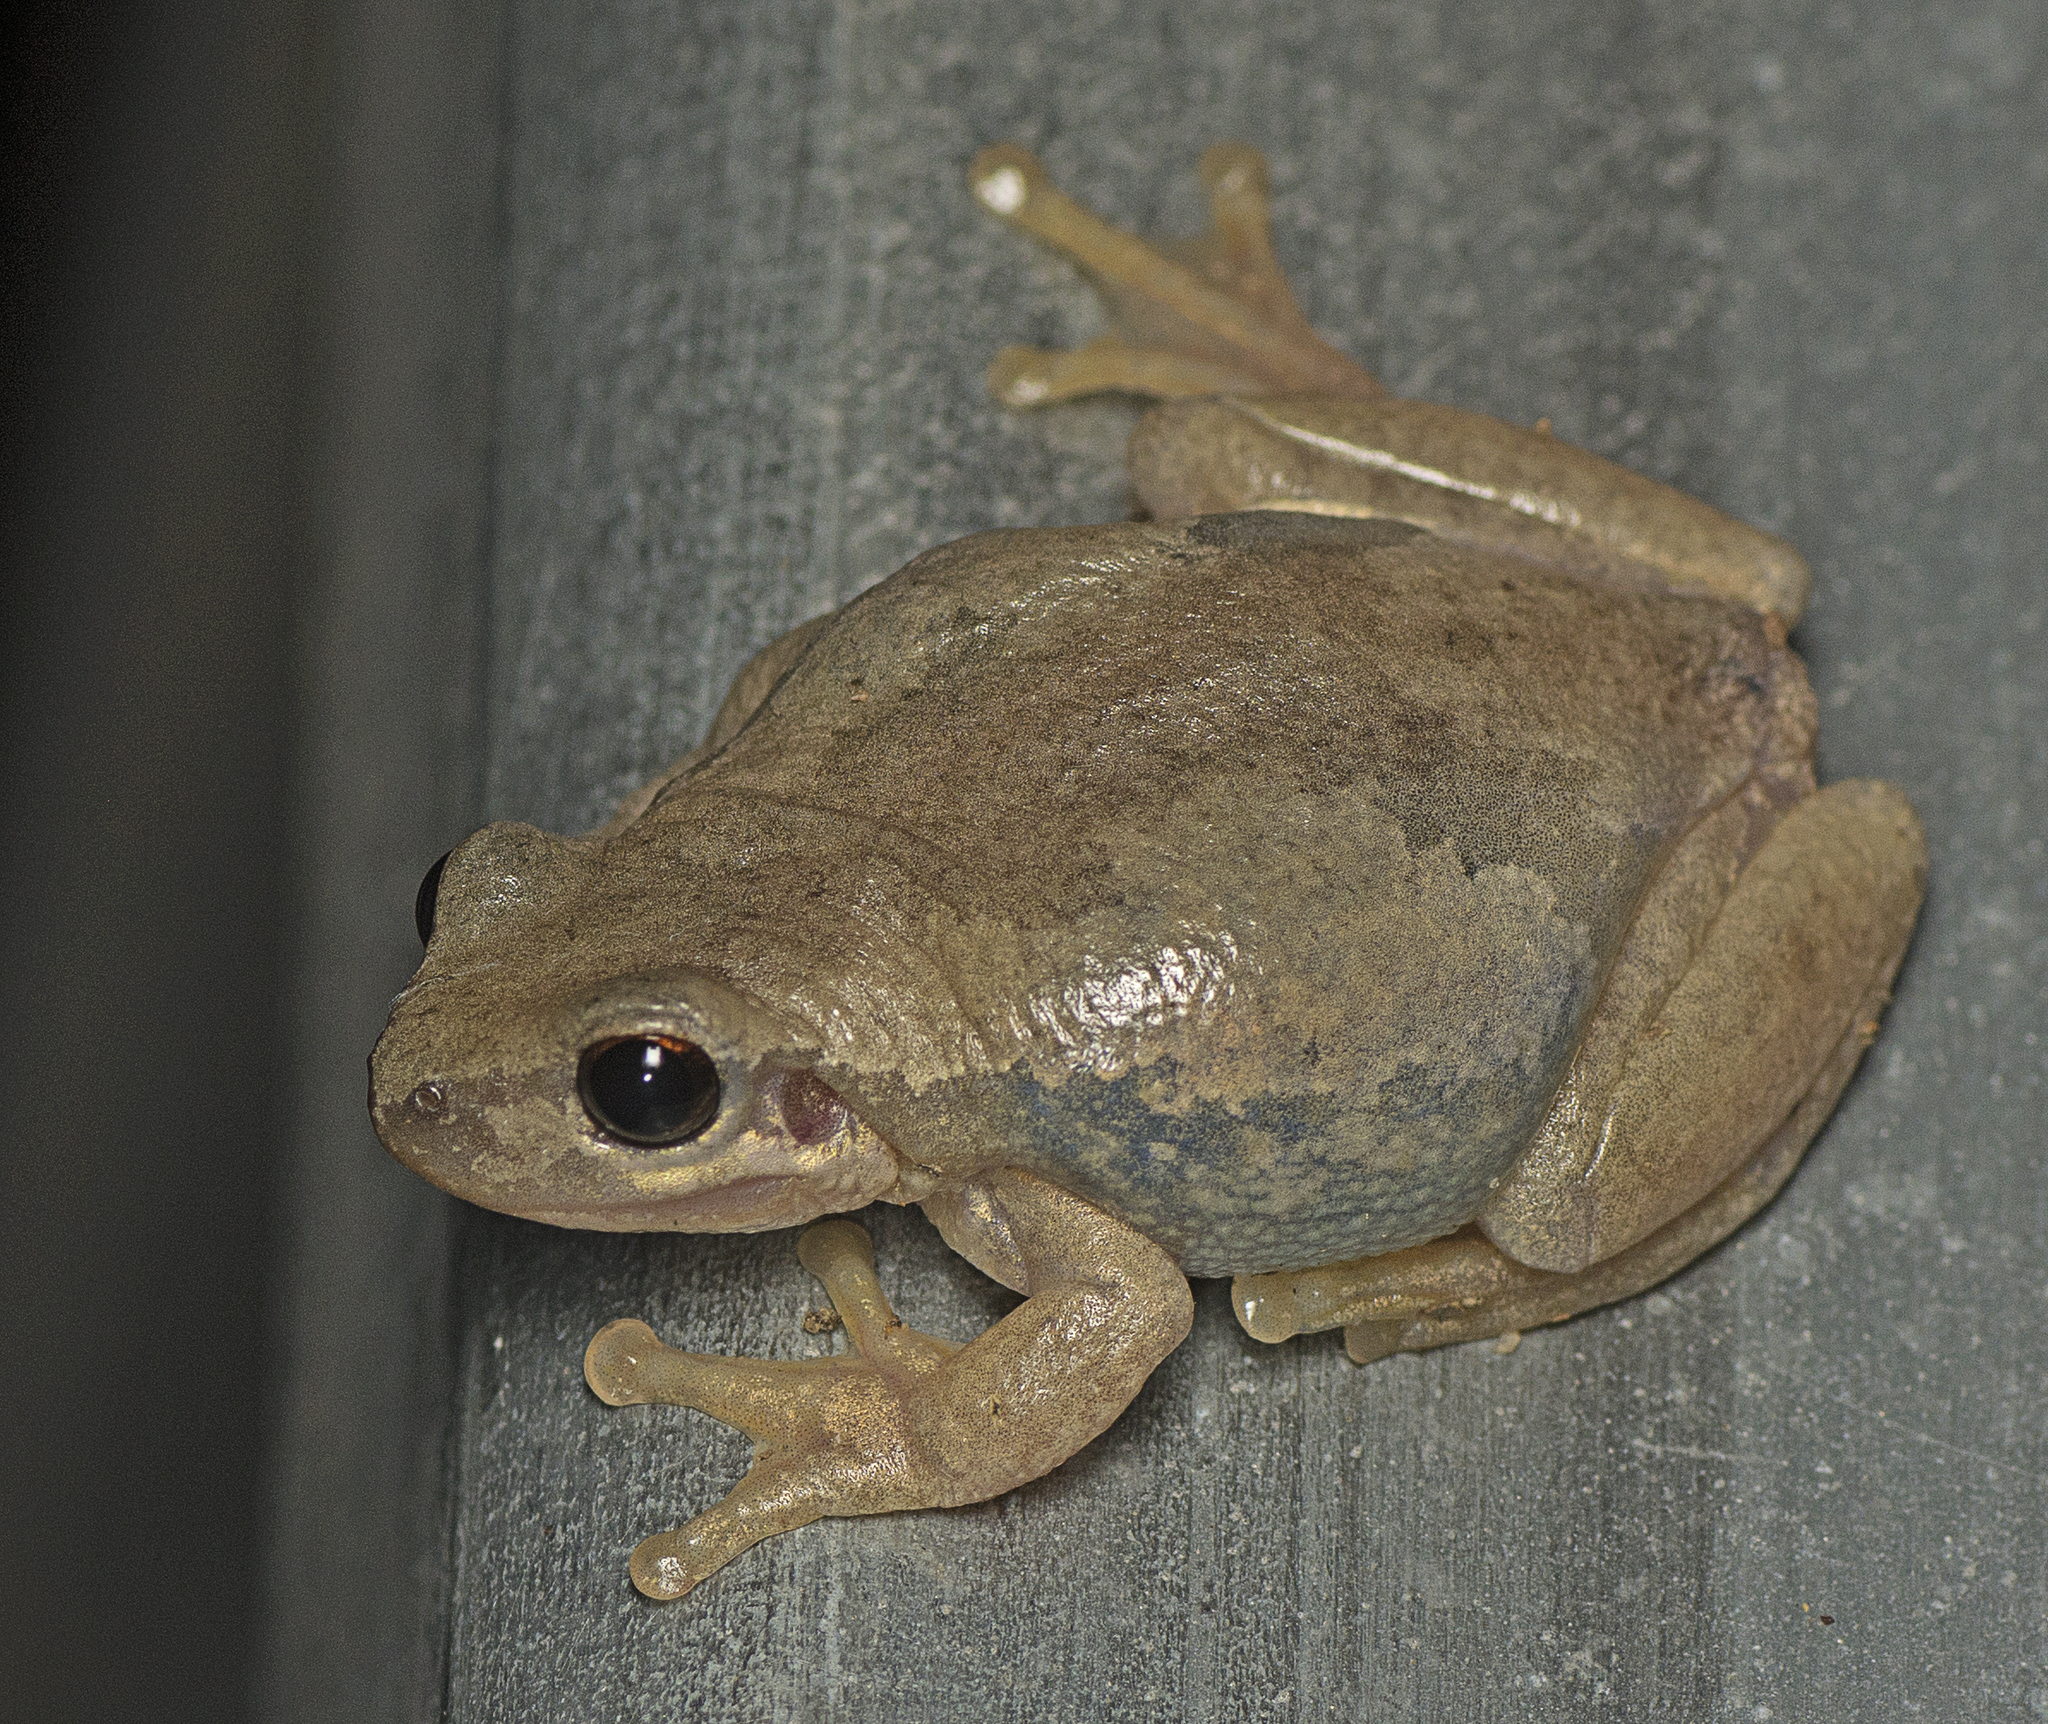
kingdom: Animalia
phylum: Chordata
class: Amphibia
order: Anura
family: Pelodryadidae
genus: Litoria
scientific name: Litoria balatus
